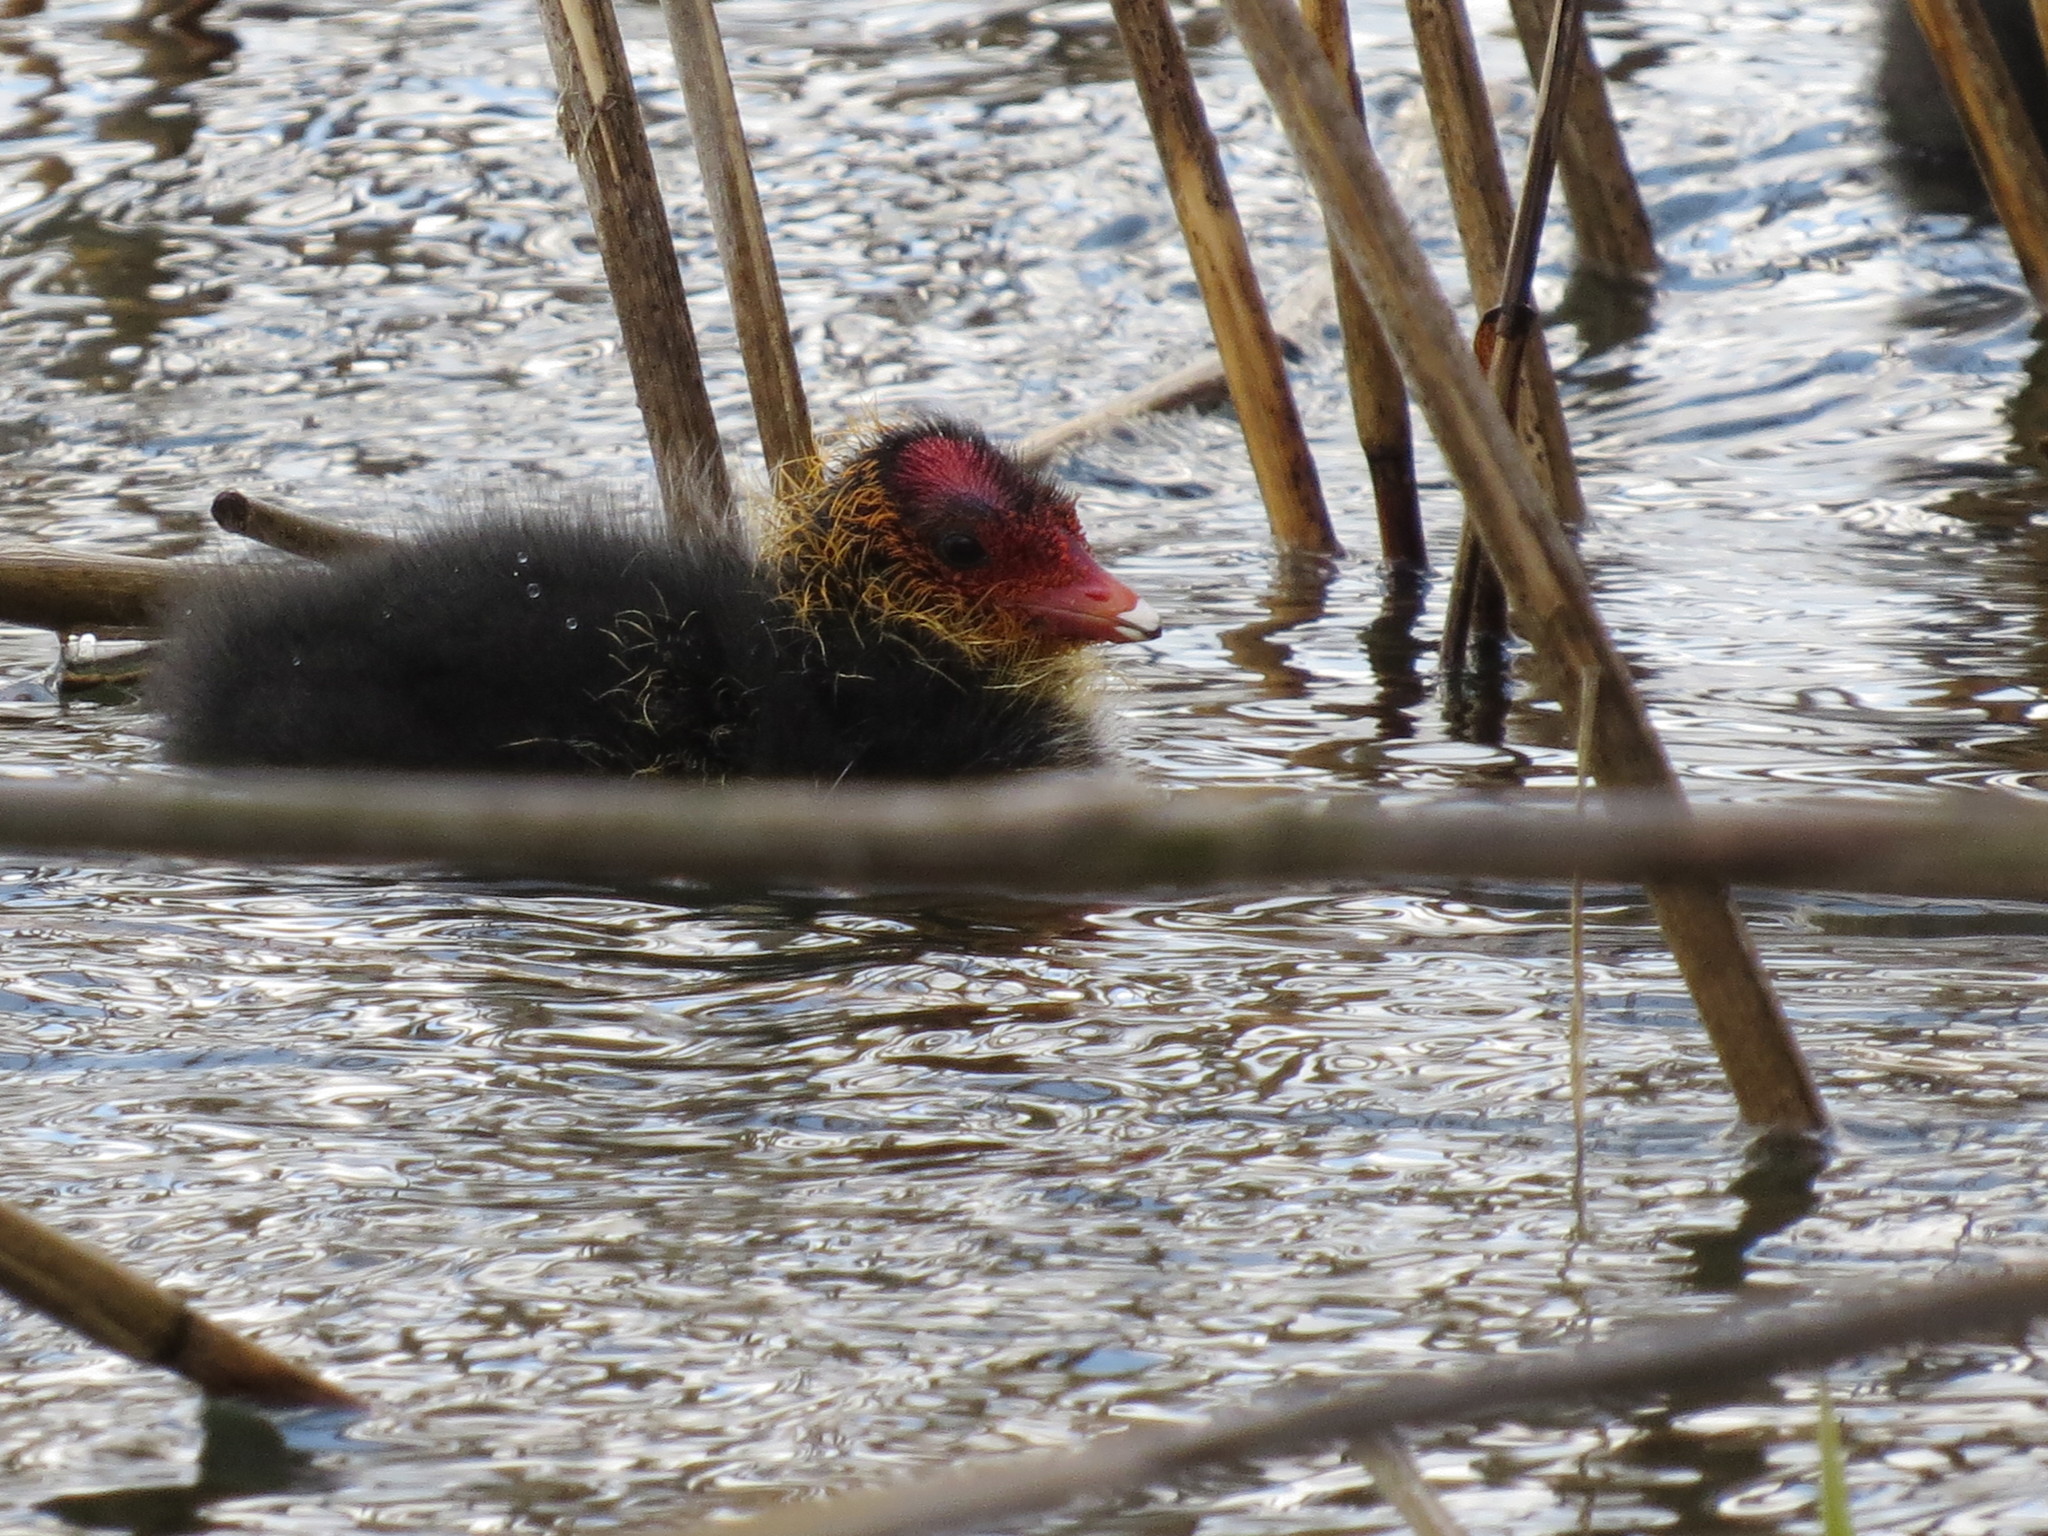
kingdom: Animalia
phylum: Chordata
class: Aves
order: Gruiformes
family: Rallidae
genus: Fulica
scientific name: Fulica atra
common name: Eurasian coot
